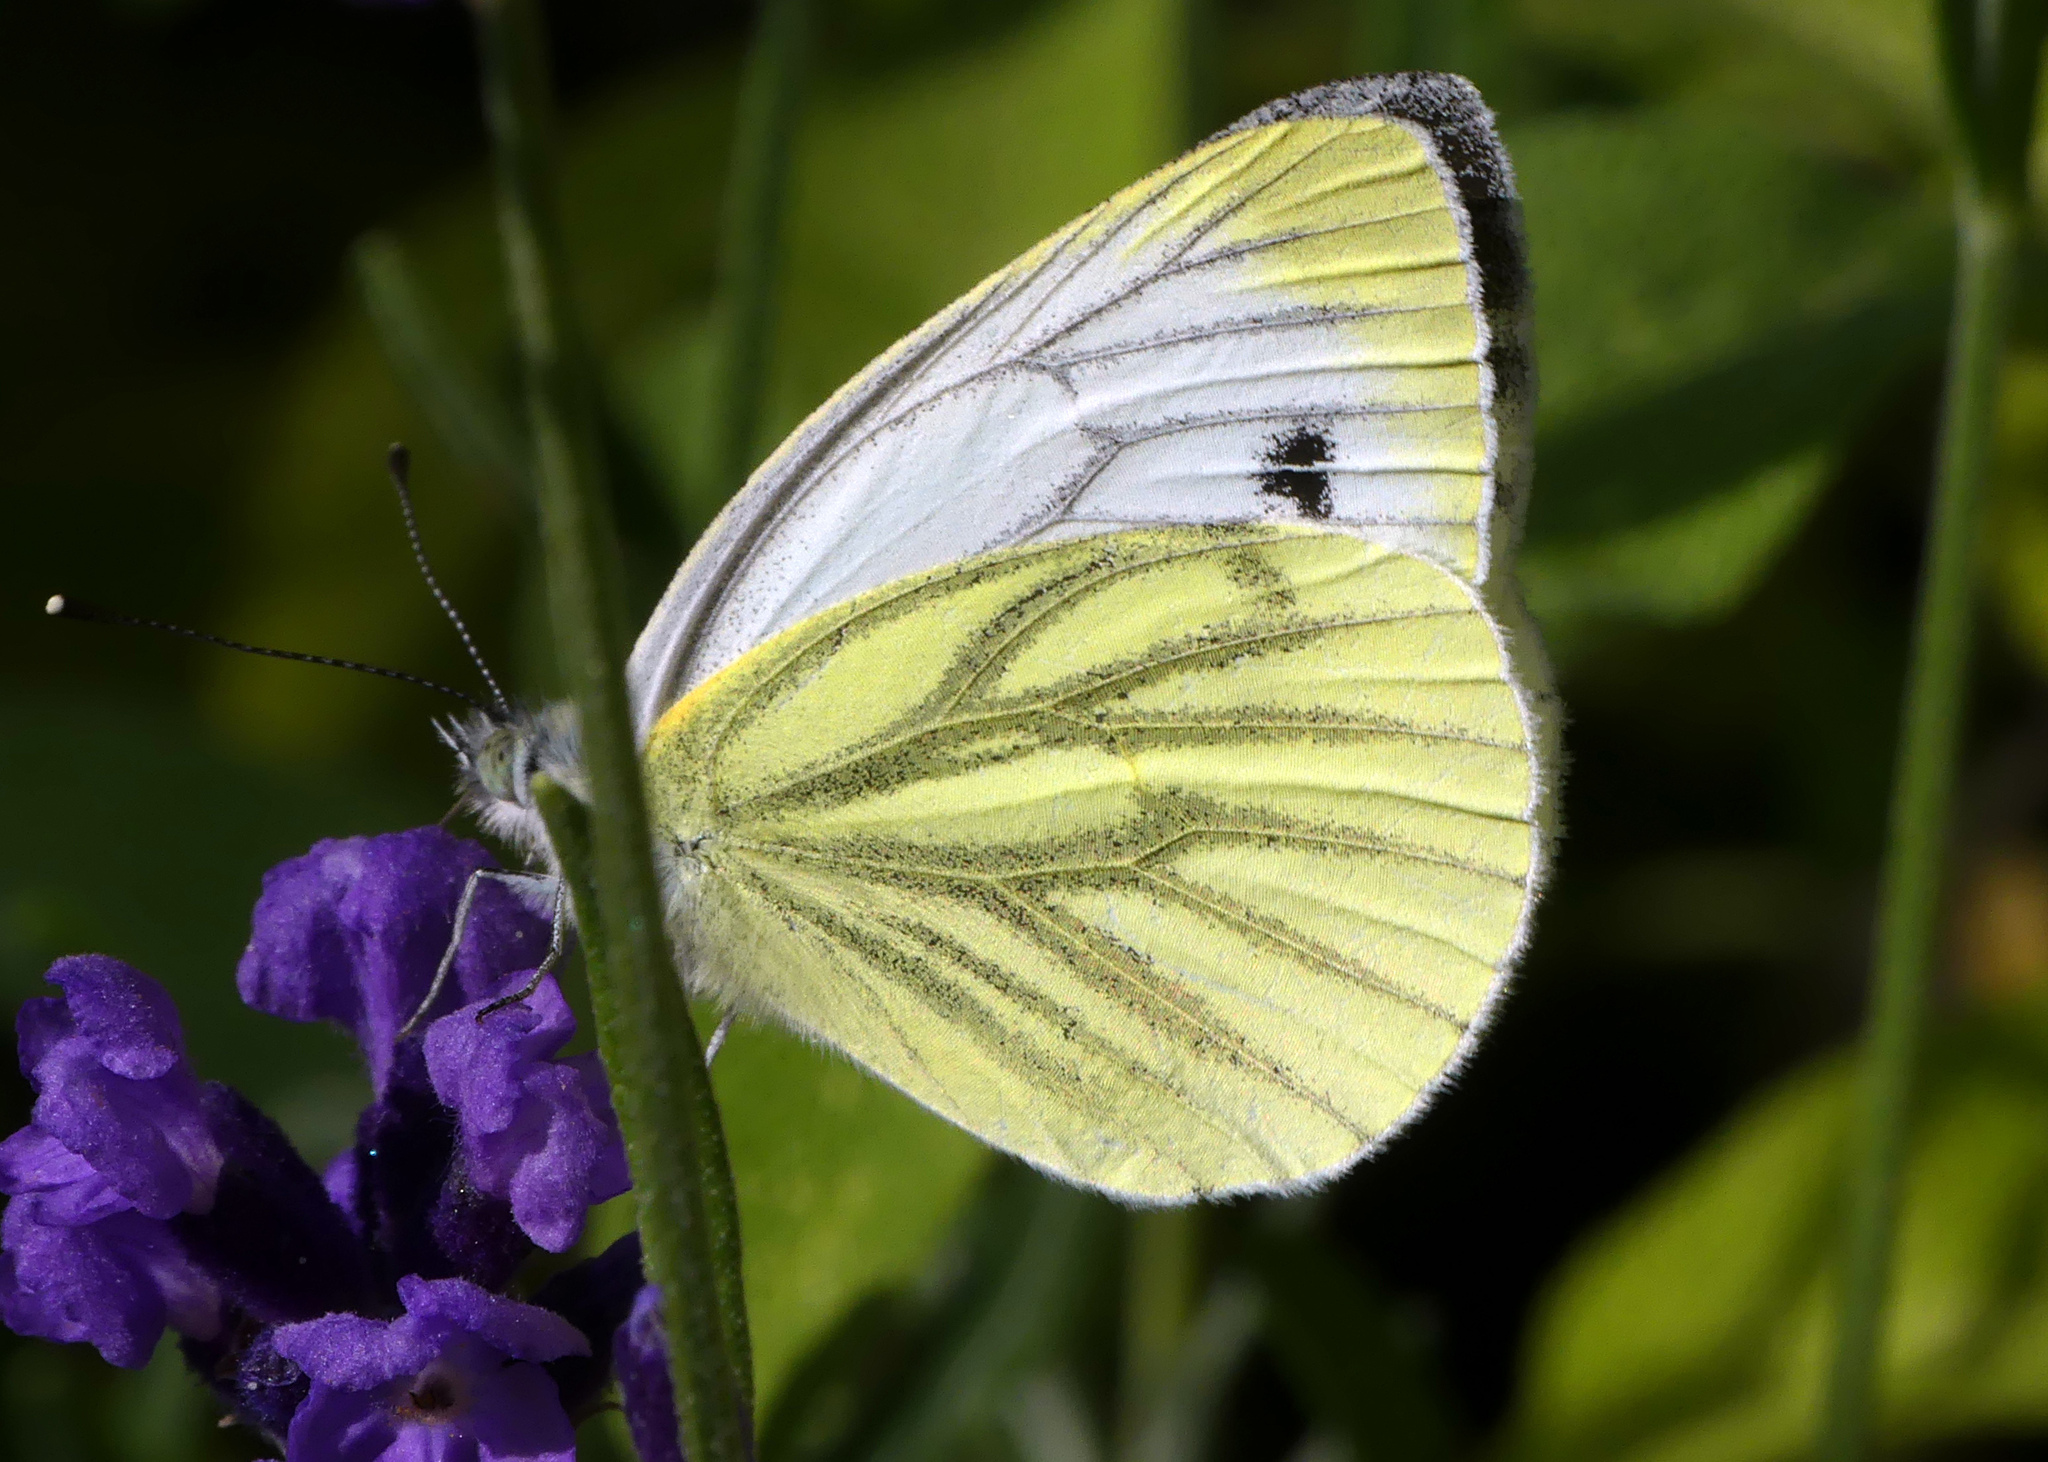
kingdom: Animalia
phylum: Arthropoda
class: Insecta
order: Lepidoptera
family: Pieridae
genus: Pieris
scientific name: Pieris napi
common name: Green-veined white
